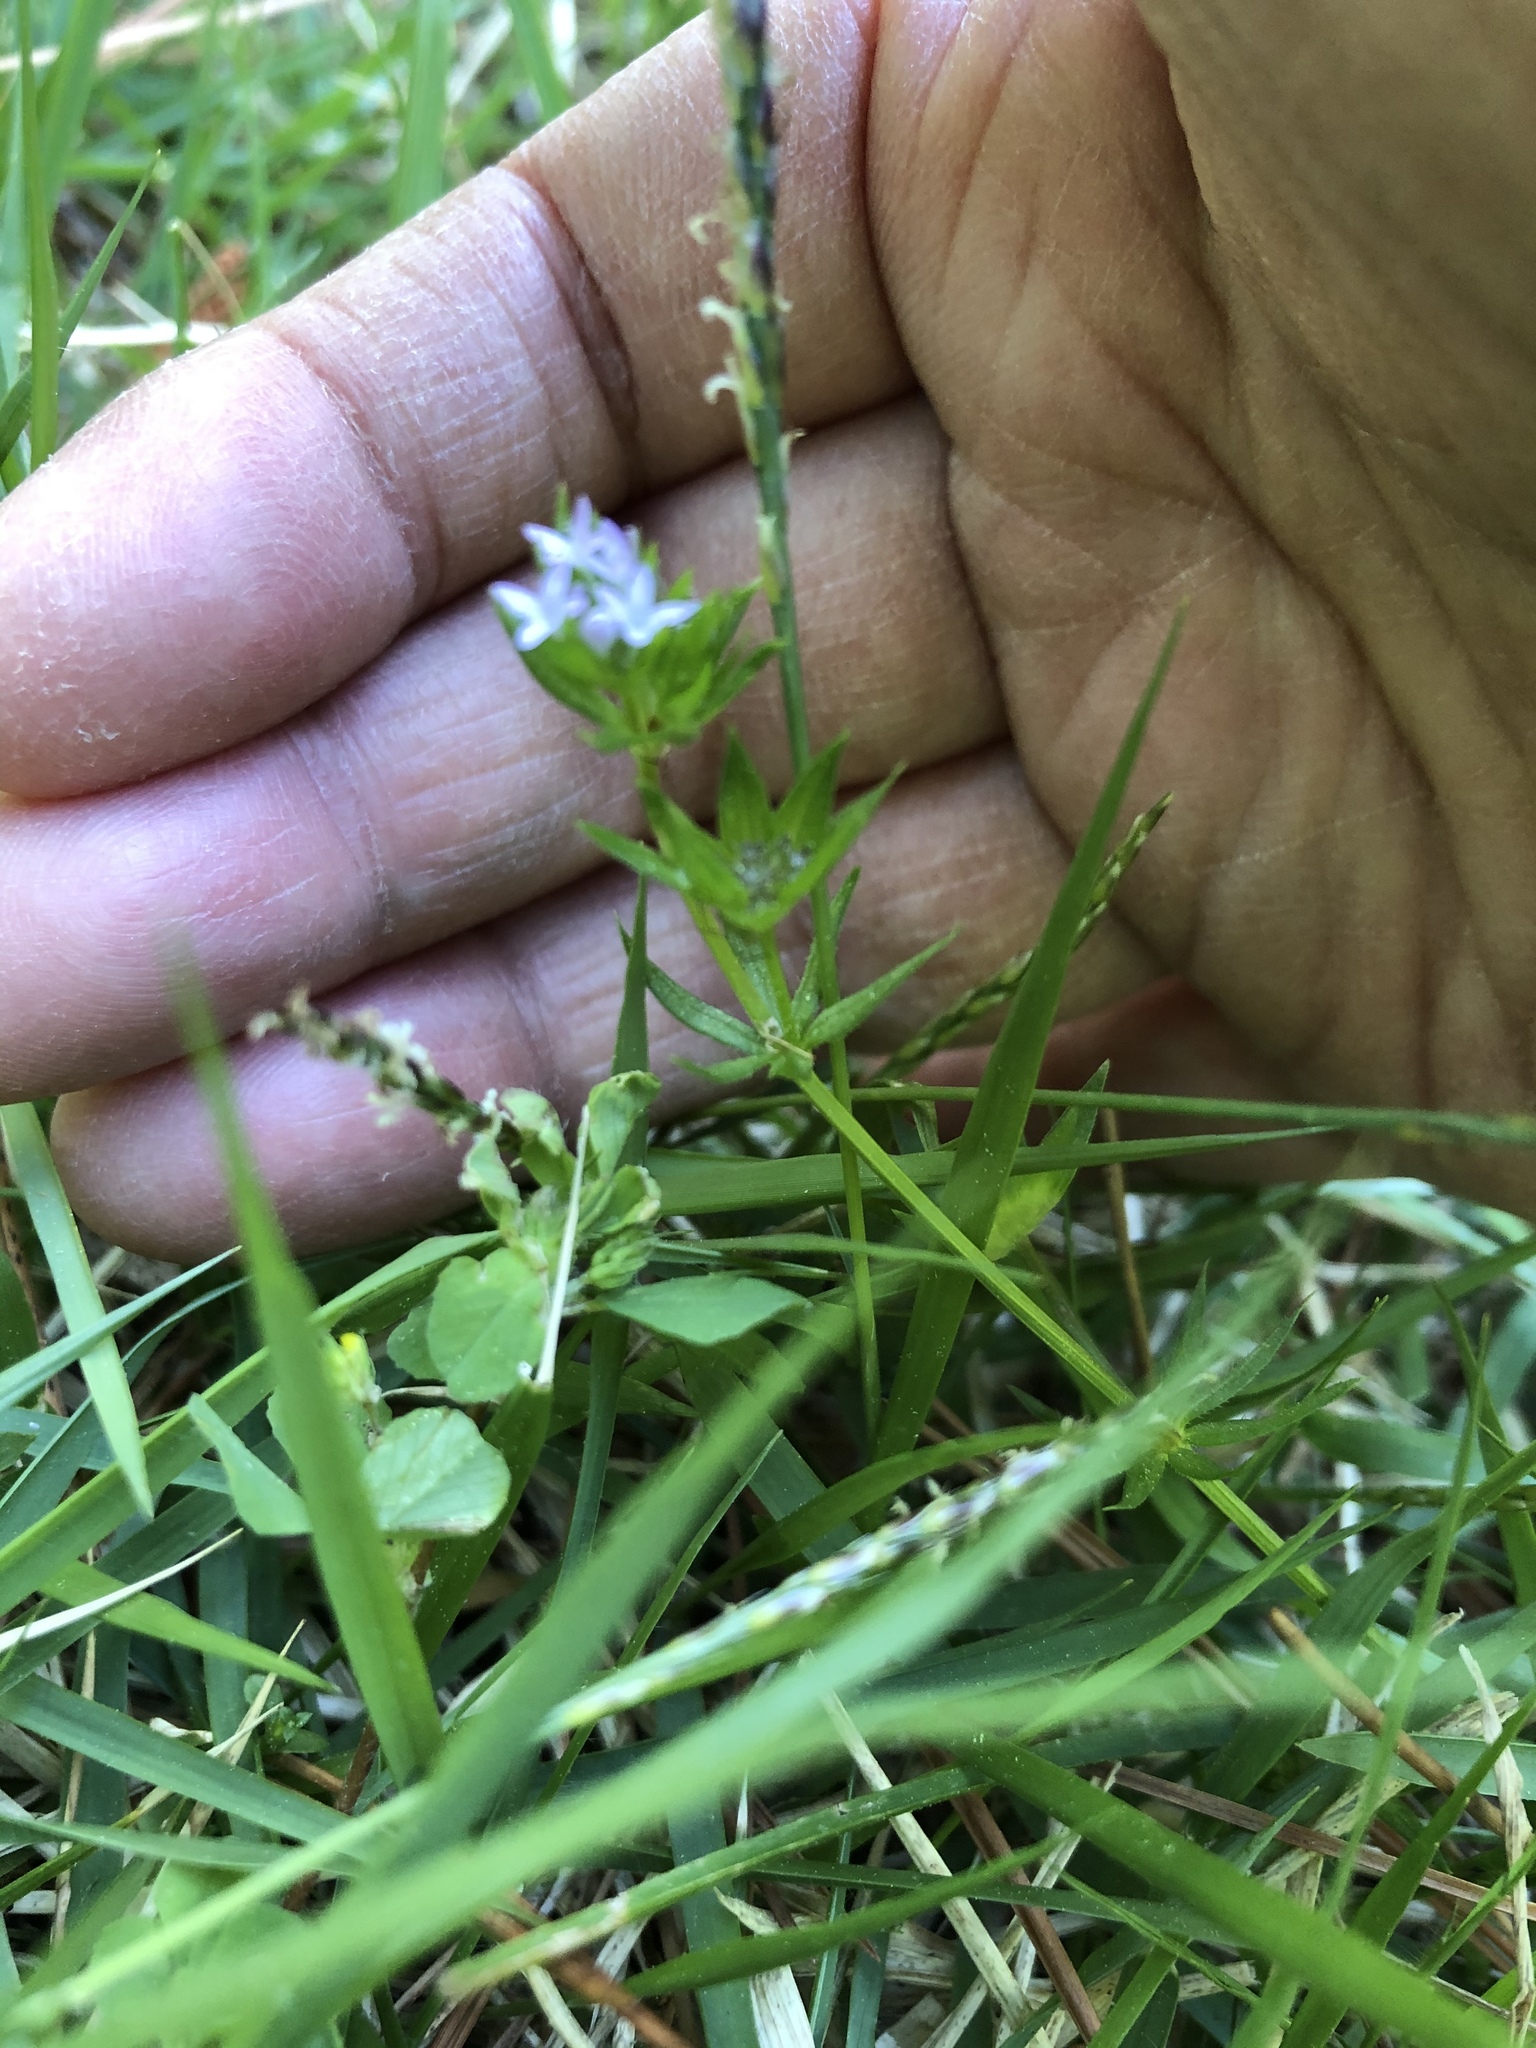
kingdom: Plantae
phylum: Tracheophyta
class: Magnoliopsida
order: Gentianales
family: Rubiaceae
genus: Sherardia
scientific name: Sherardia arvensis
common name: Field madder
